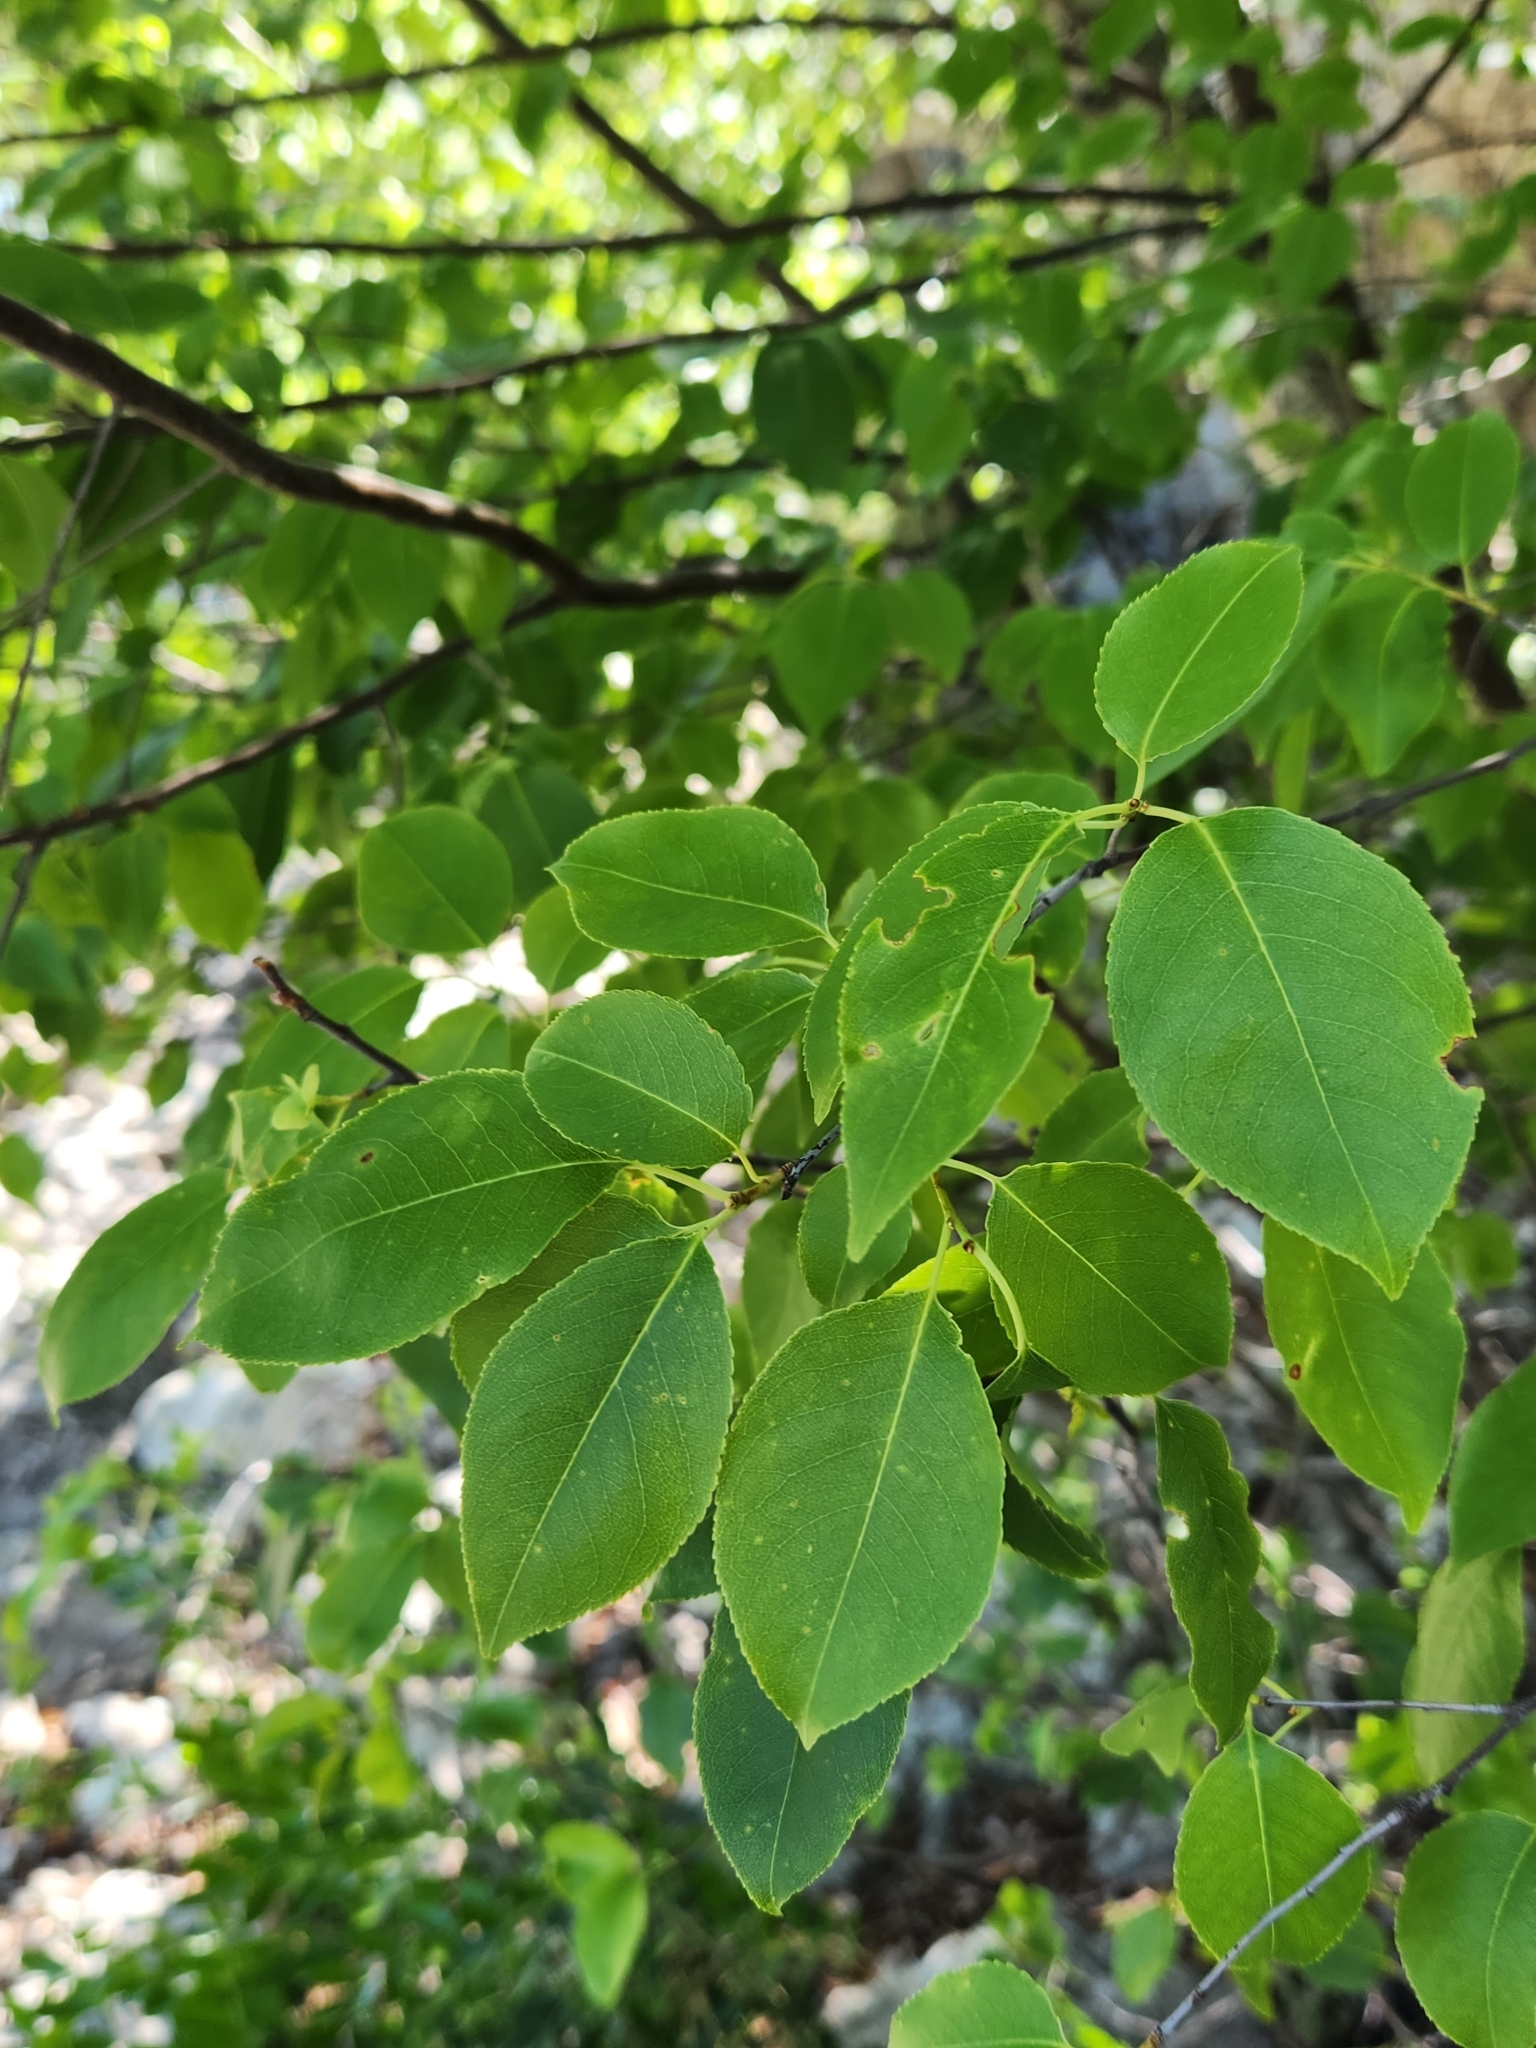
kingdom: Plantae
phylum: Tracheophyta
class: Magnoliopsida
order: Rosales
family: Rosaceae
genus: Prunus
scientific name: Prunus serotina
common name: Black cherry
